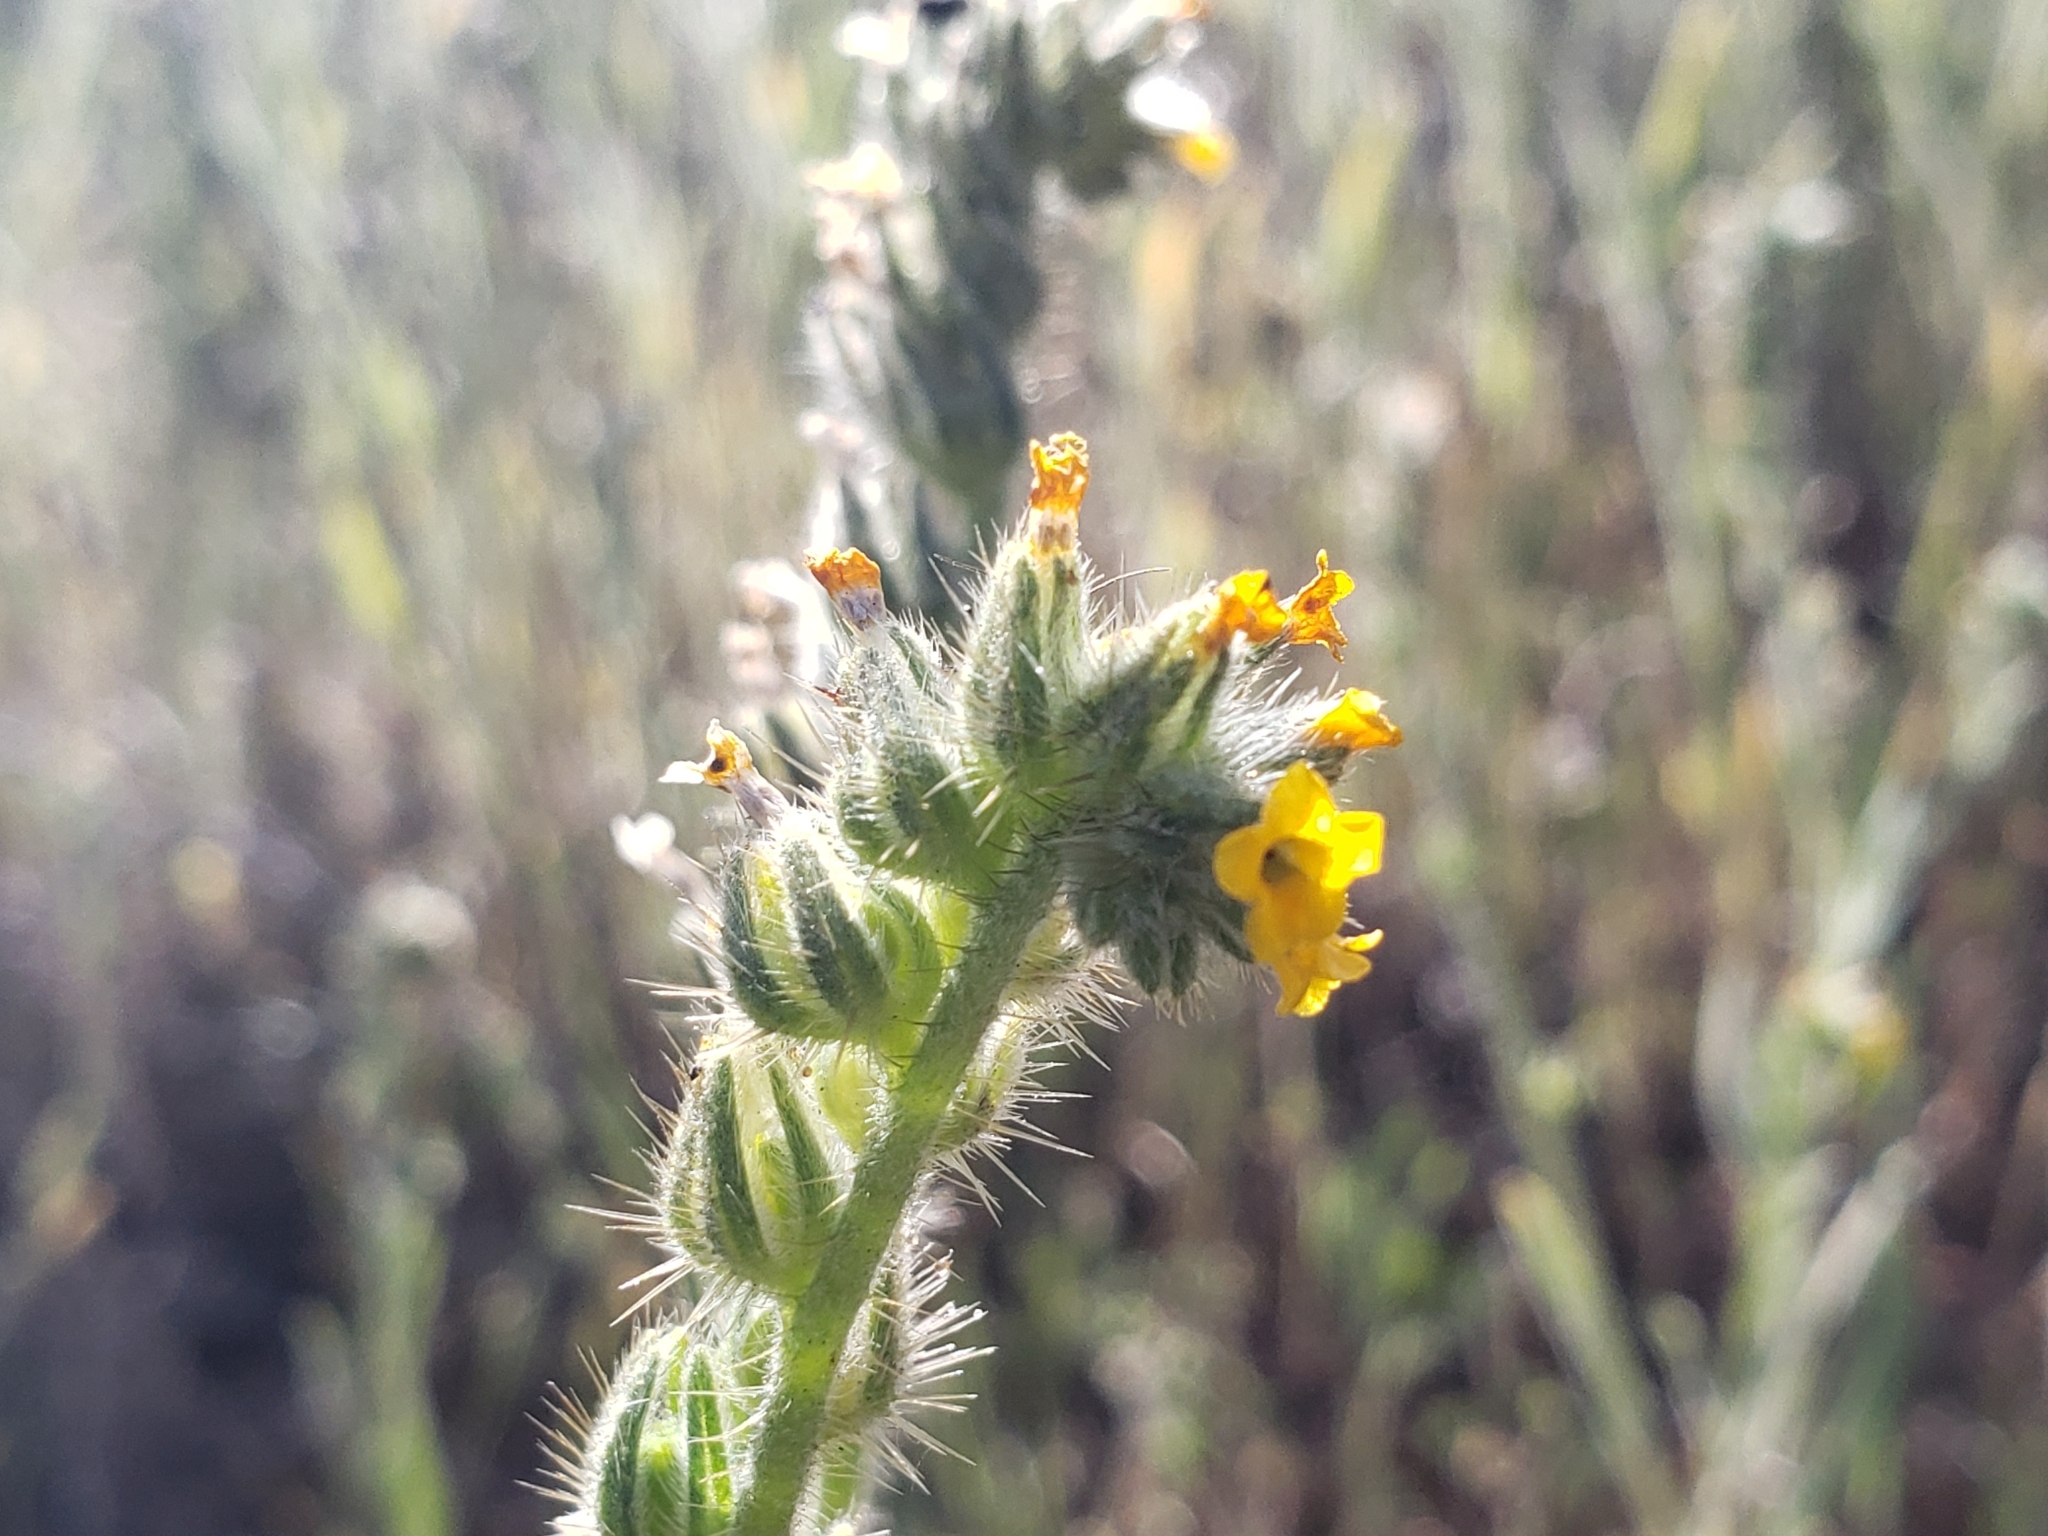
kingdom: Plantae
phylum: Tracheophyta
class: Magnoliopsida
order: Boraginales
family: Boraginaceae
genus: Amsinckia
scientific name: Amsinckia menziesii
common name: Menzies' fiddleneck
